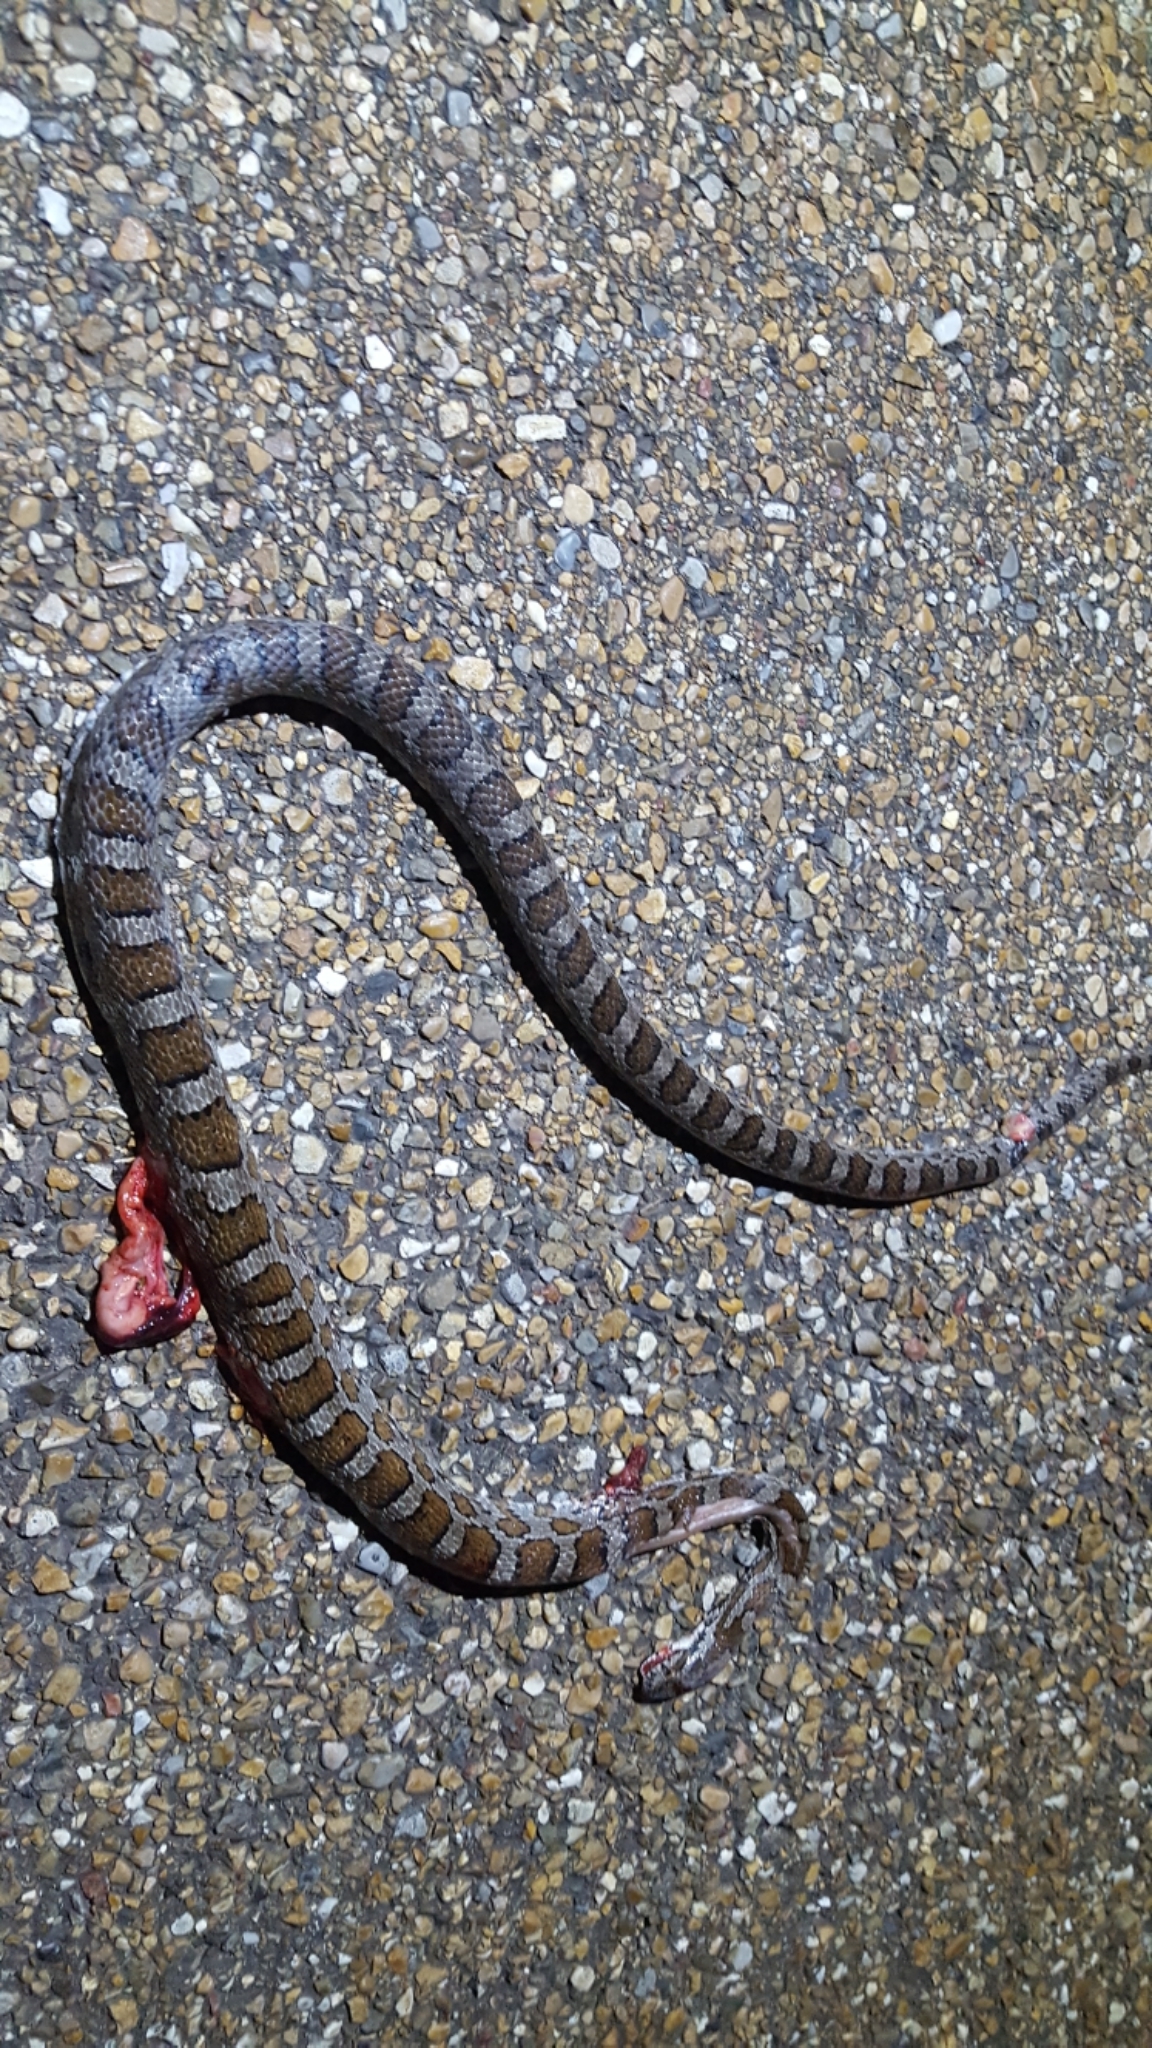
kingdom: Animalia
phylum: Chordata
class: Squamata
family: Colubridae
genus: Pantherophis
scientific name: Pantherophis emoryi
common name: Great plains rat snake
